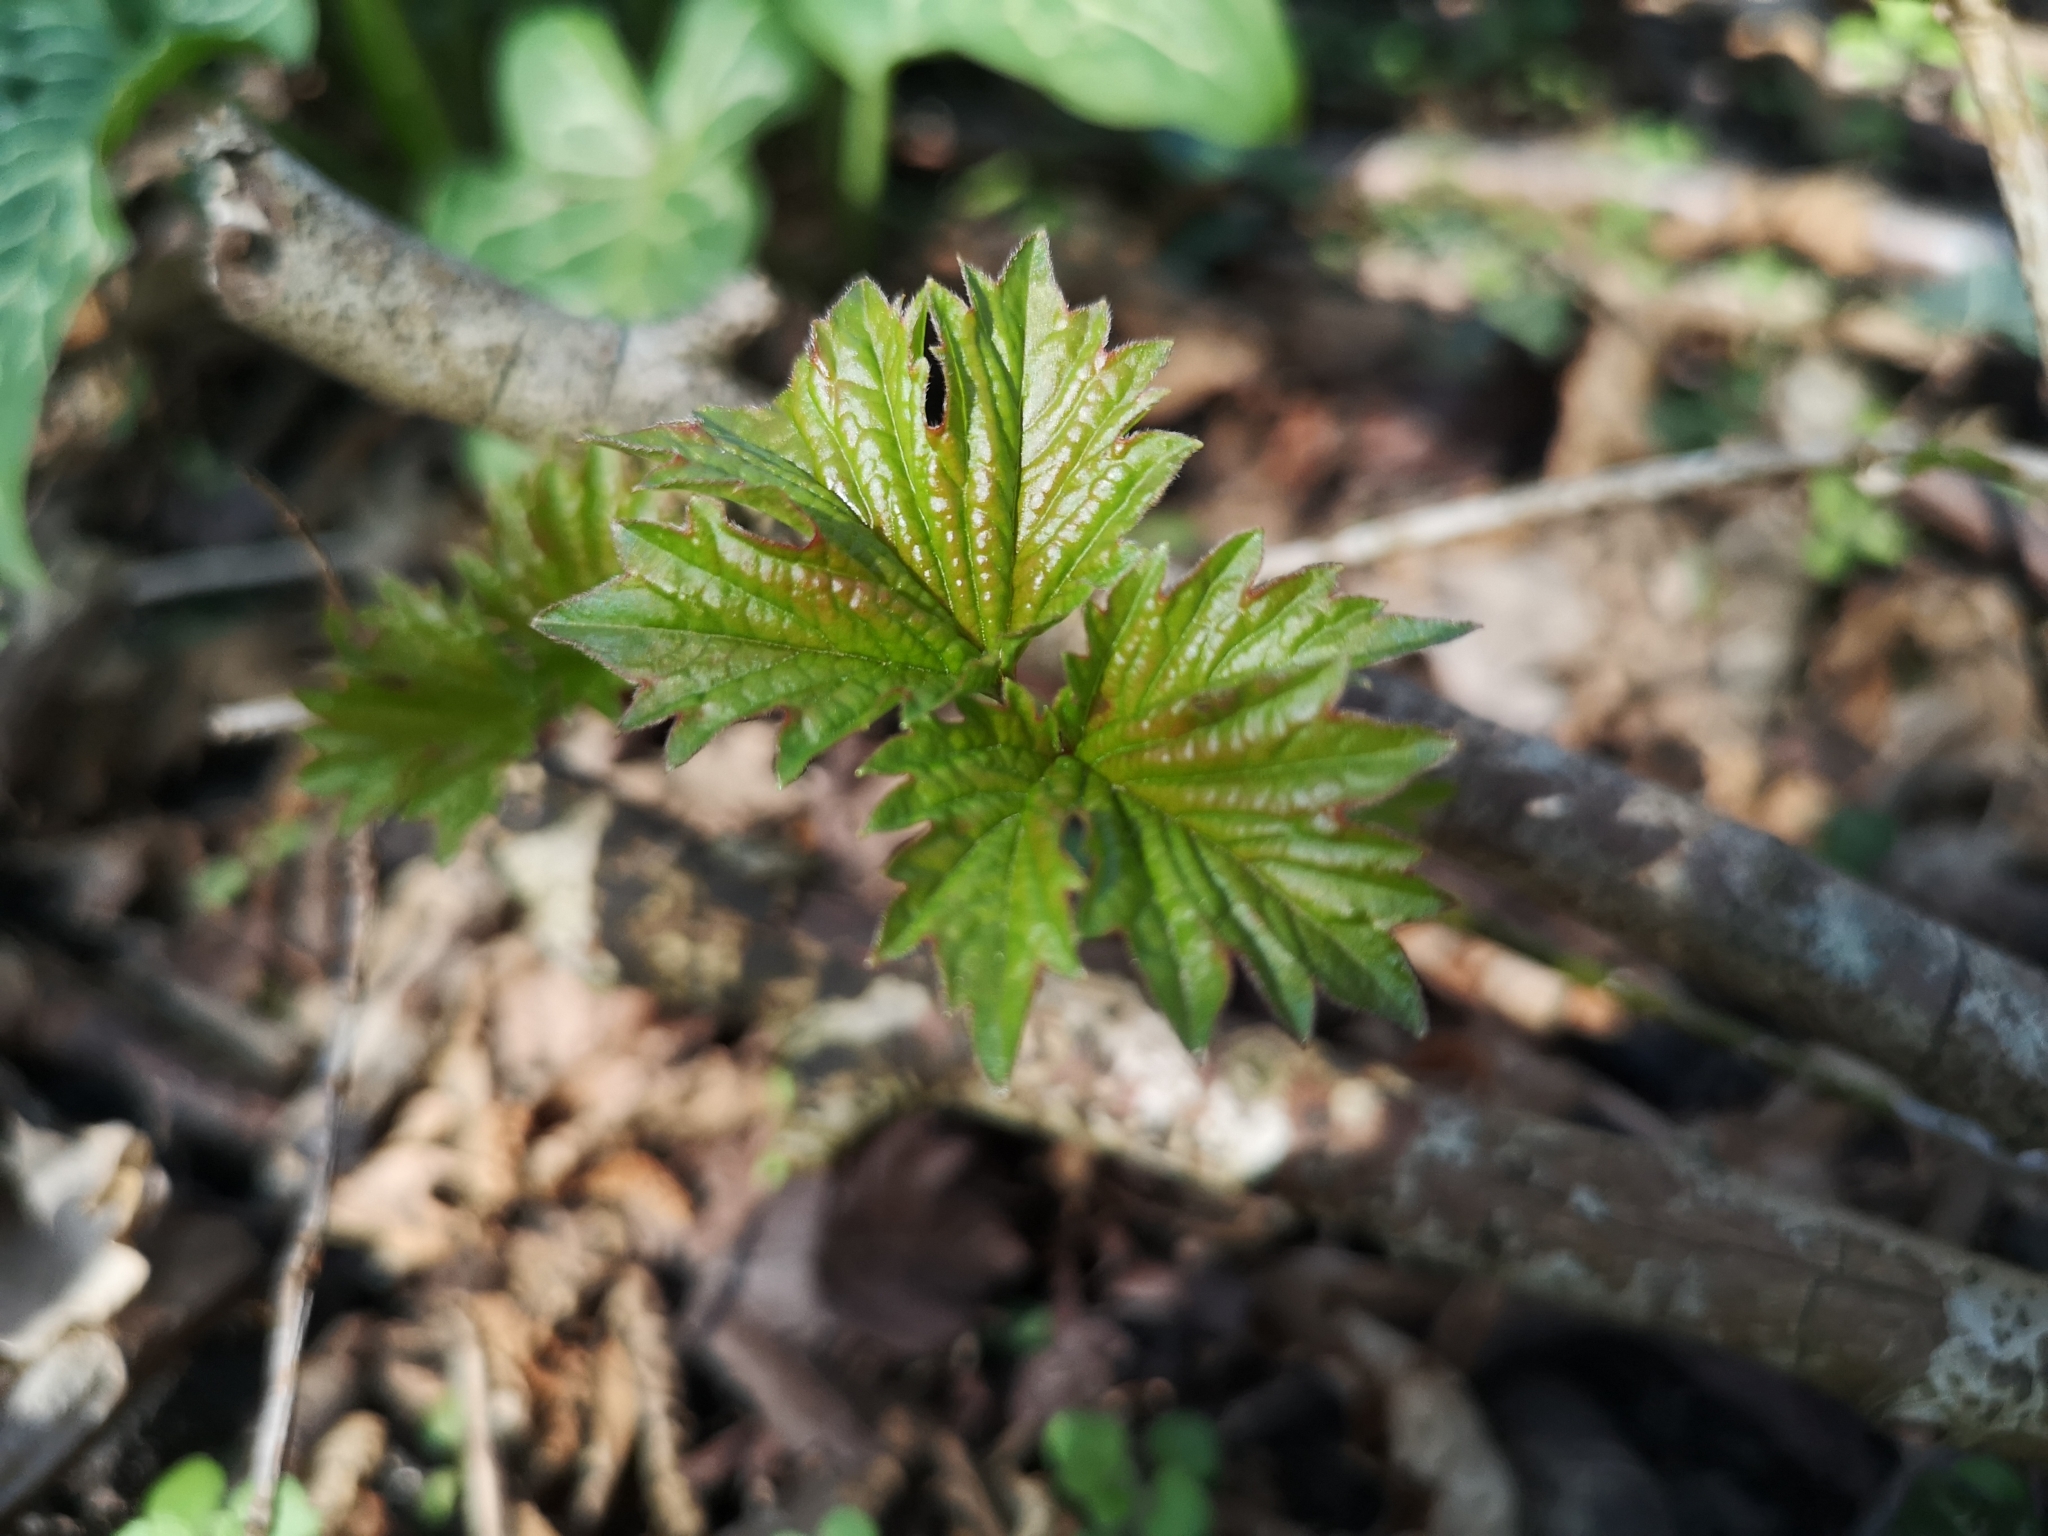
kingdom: Plantae
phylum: Tracheophyta
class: Magnoliopsida
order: Dipsacales
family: Viburnaceae
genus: Viburnum
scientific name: Viburnum opulus
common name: Guelder-rose
